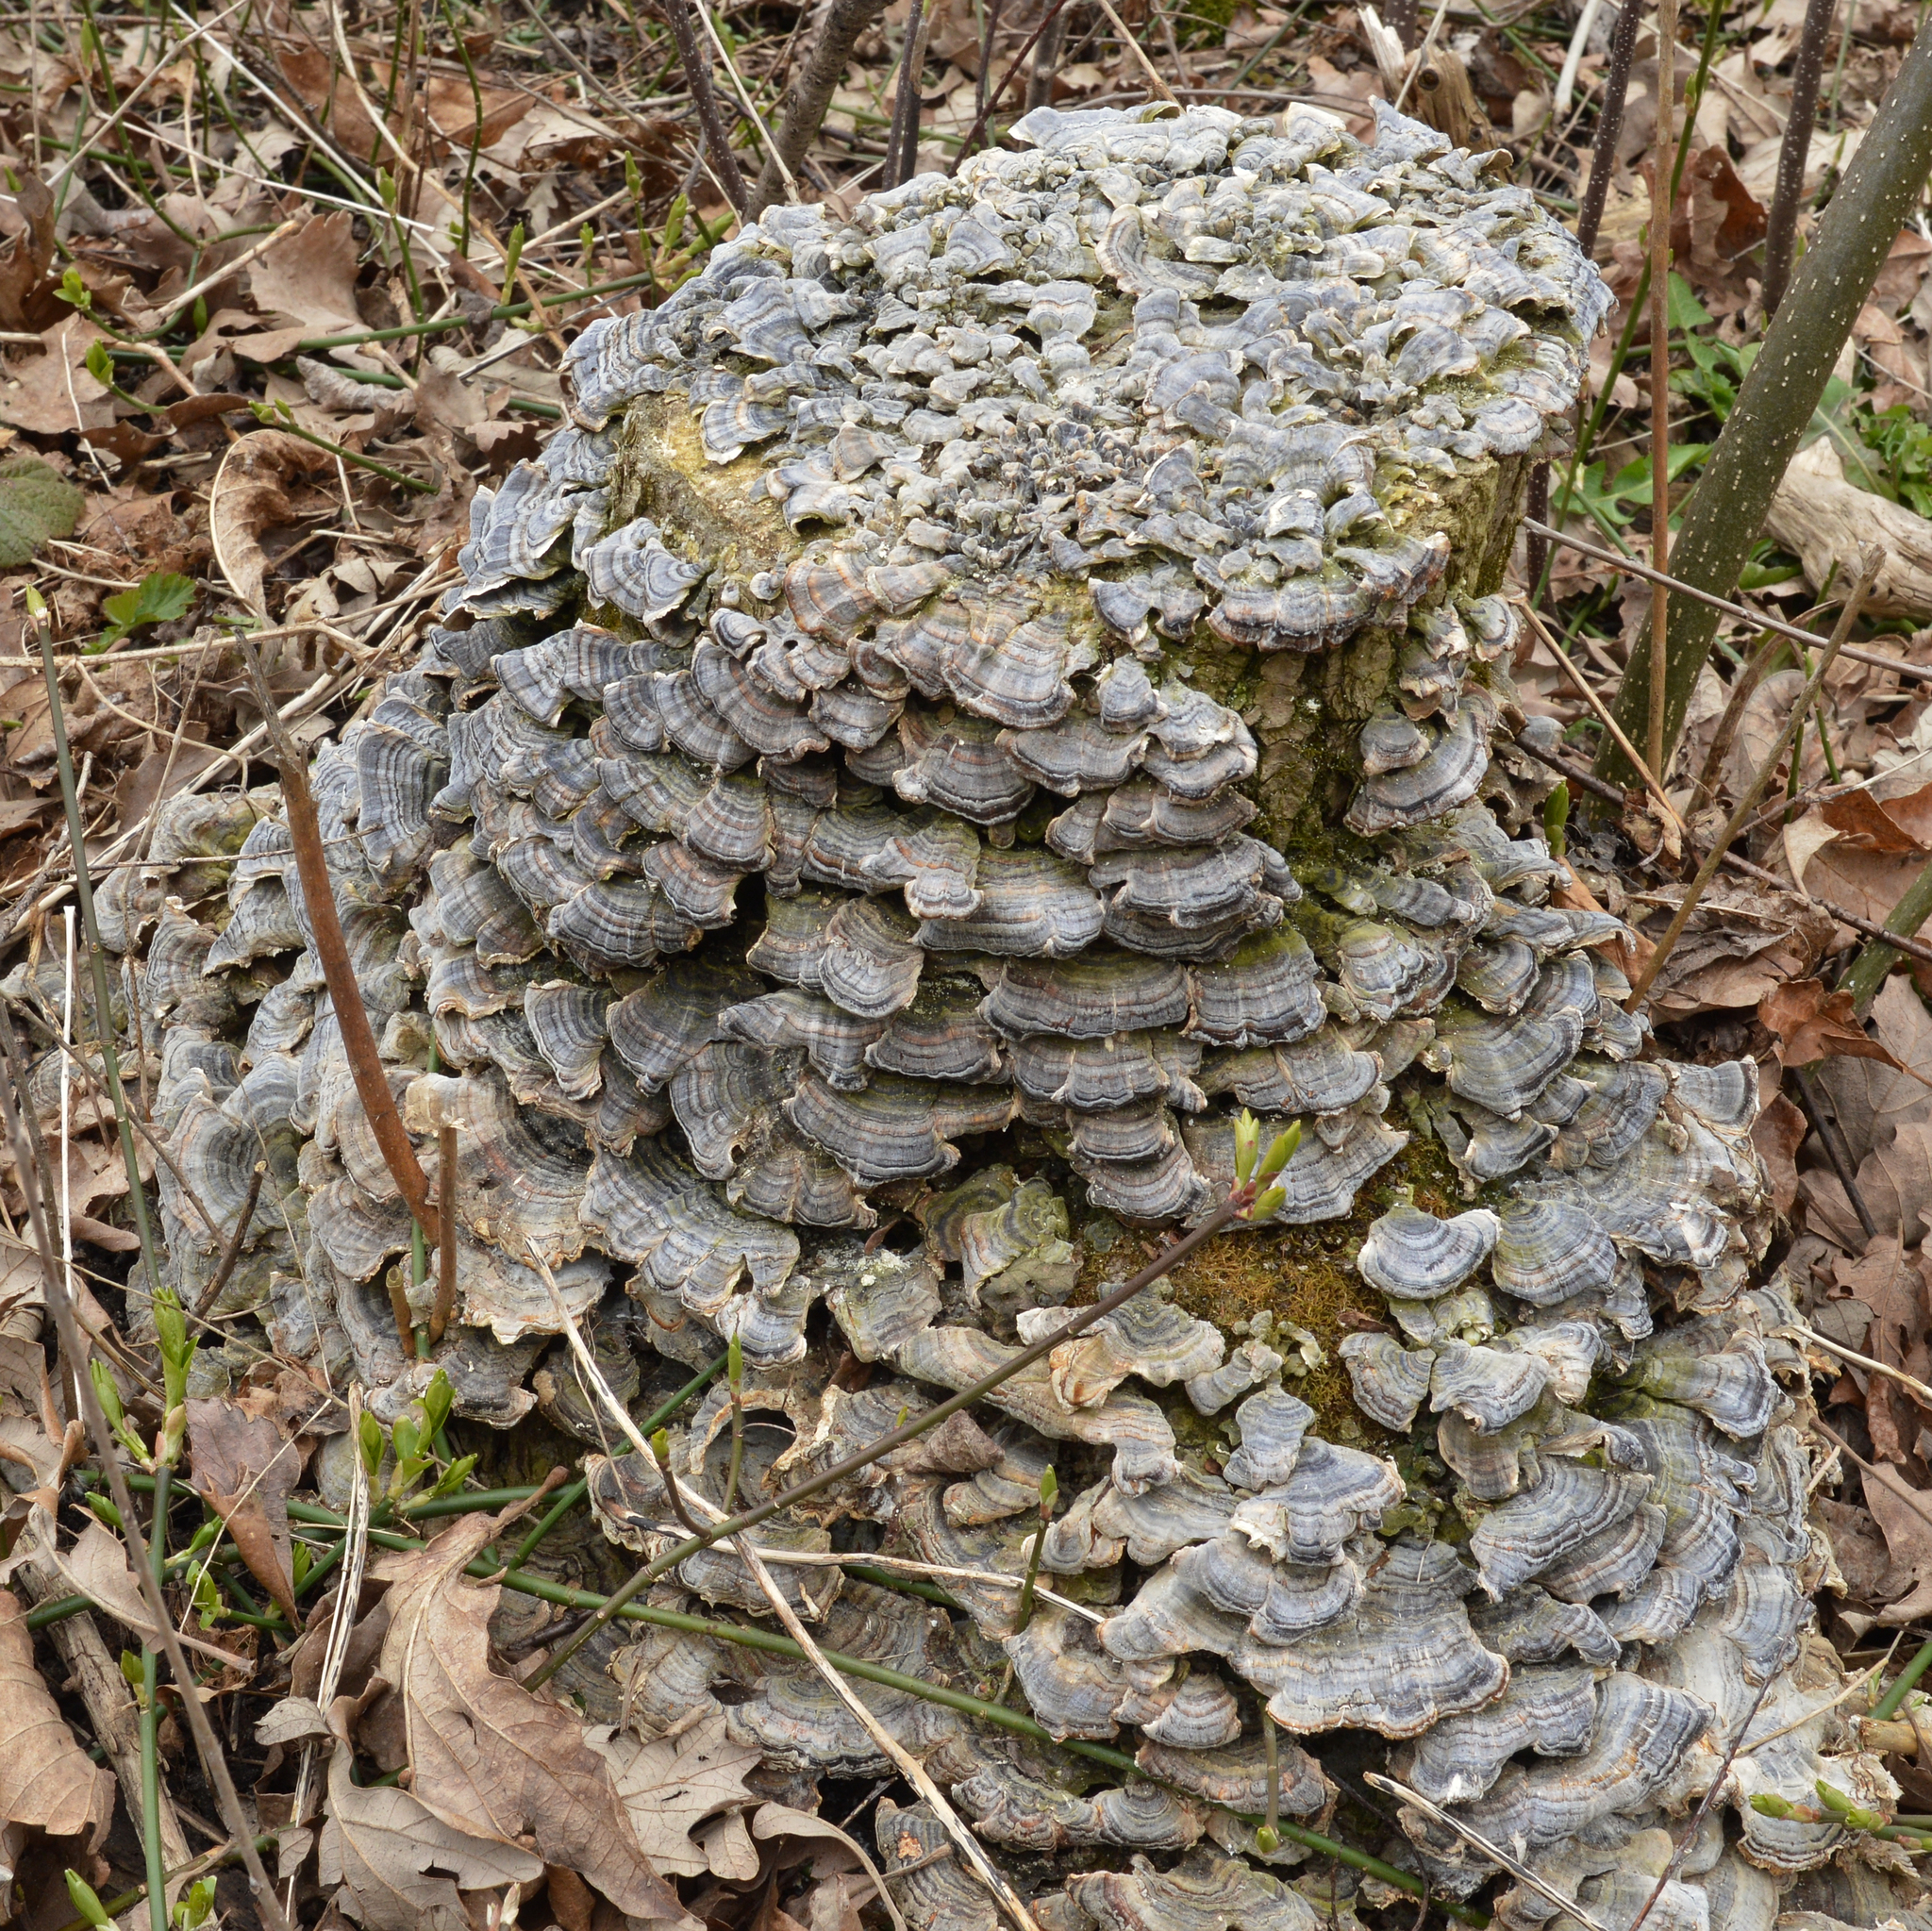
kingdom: Fungi
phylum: Basidiomycota
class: Agaricomycetes
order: Polyporales
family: Polyporaceae
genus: Trametes
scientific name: Trametes versicolor
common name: Turkeytail
